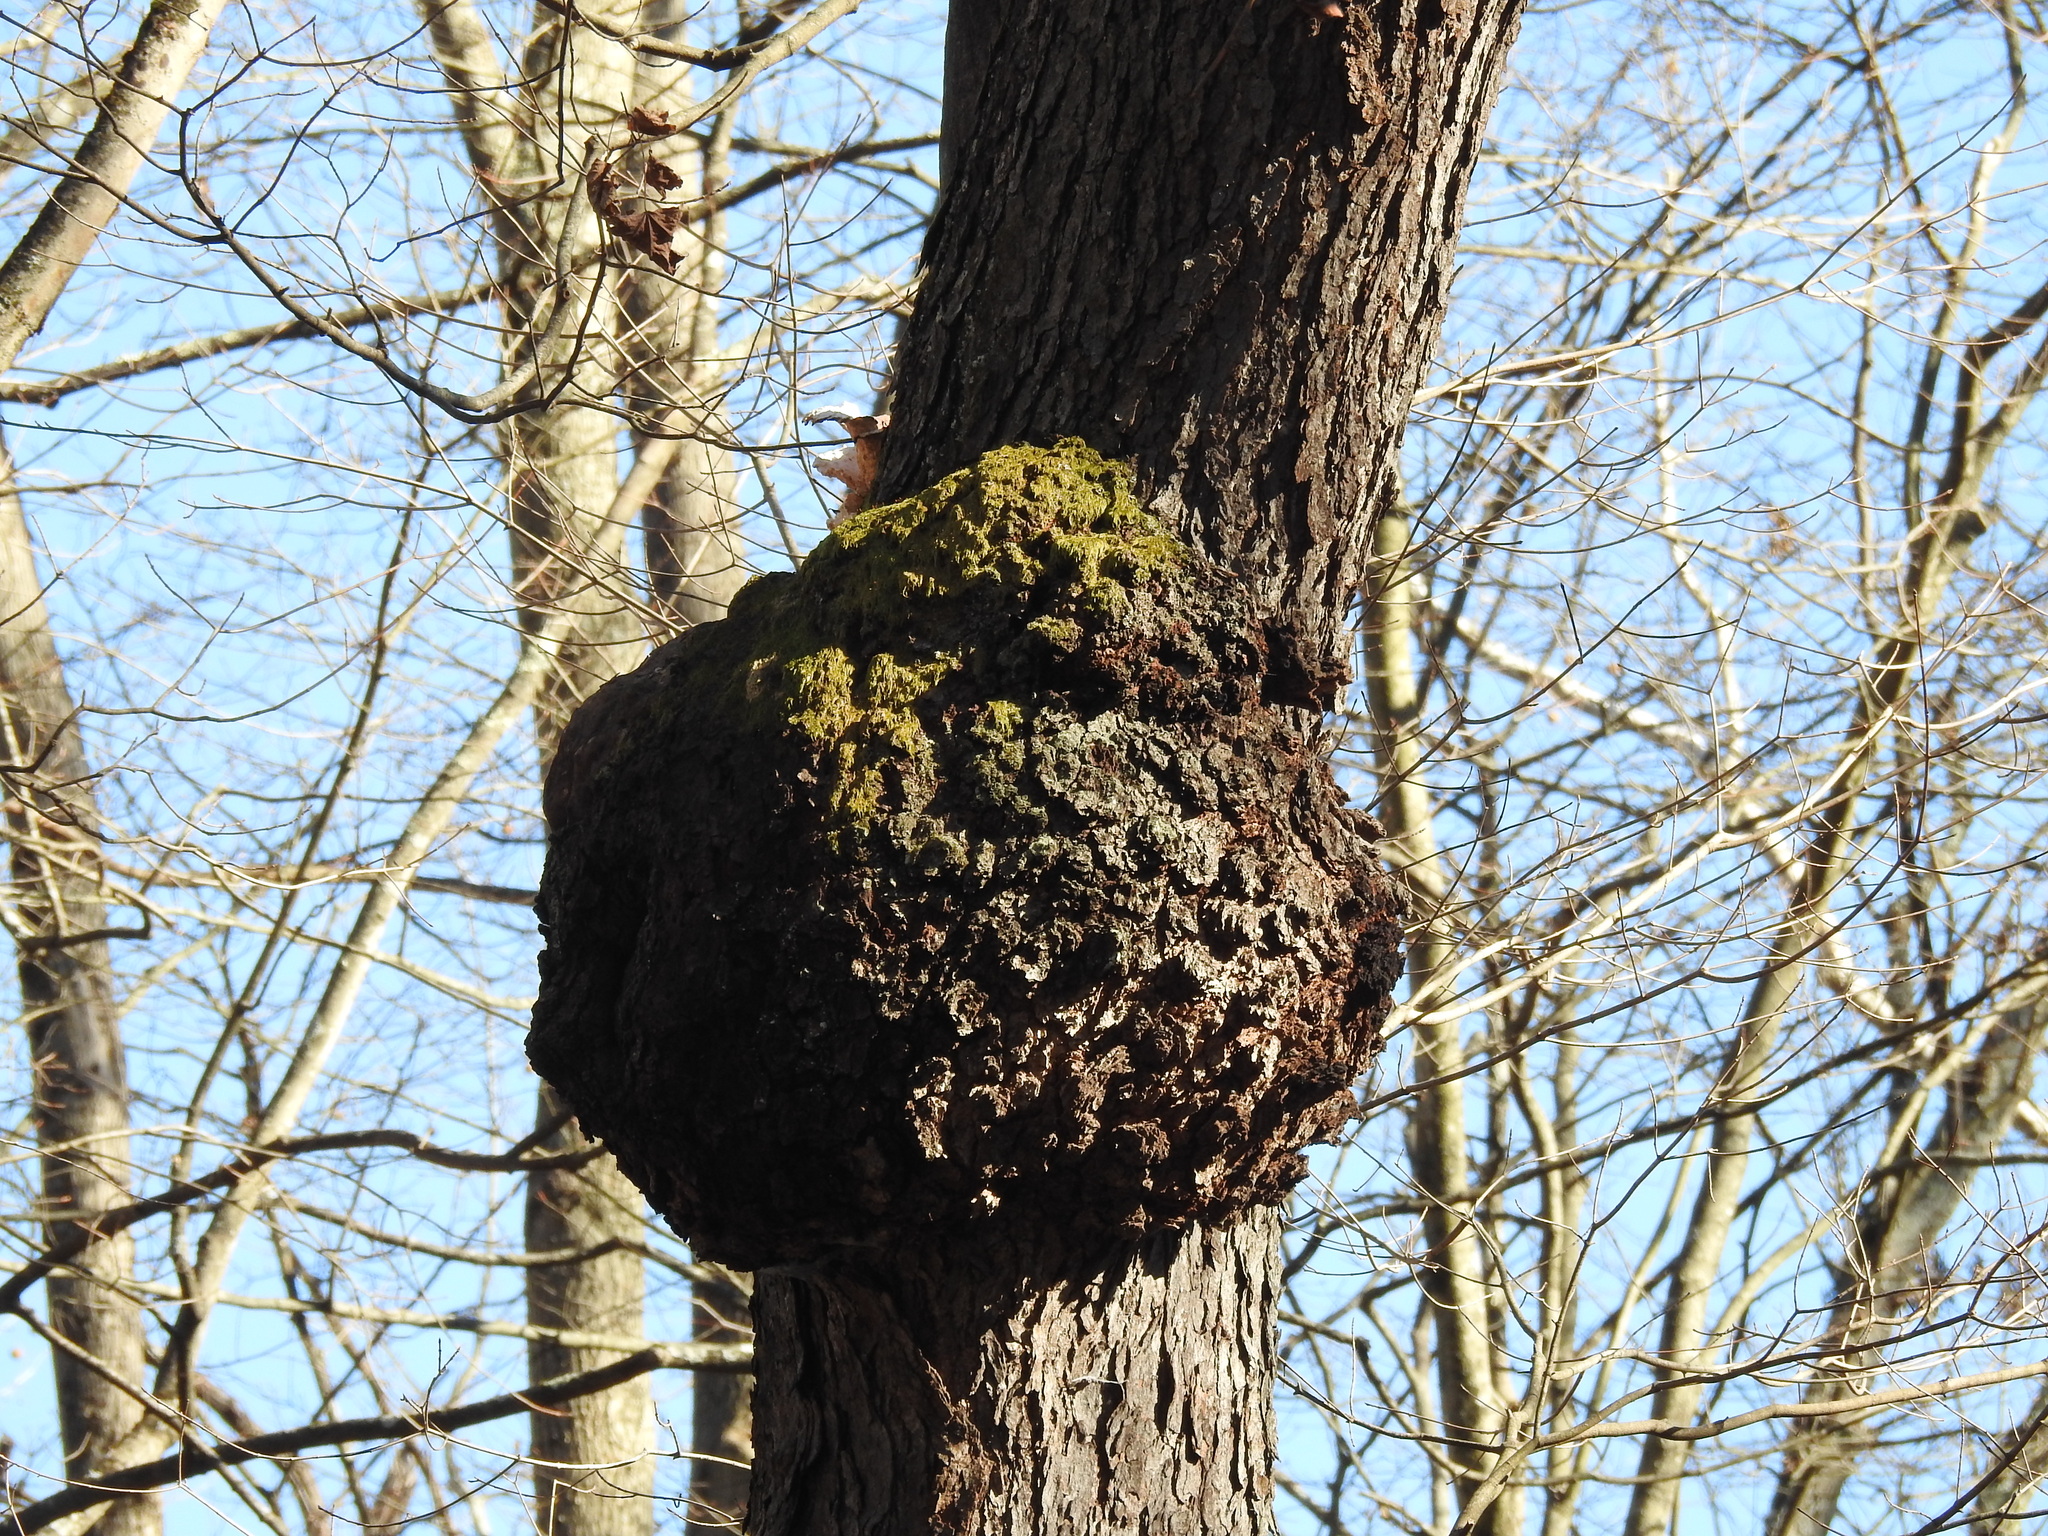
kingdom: Bacteria
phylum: Proteobacteria
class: Alphaproteobacteria
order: Rhizobiales
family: Rhizobiaceae
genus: Rhizobium
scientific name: Rhizobium Agrobacterium radiobacter
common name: Bacterial crown gall
